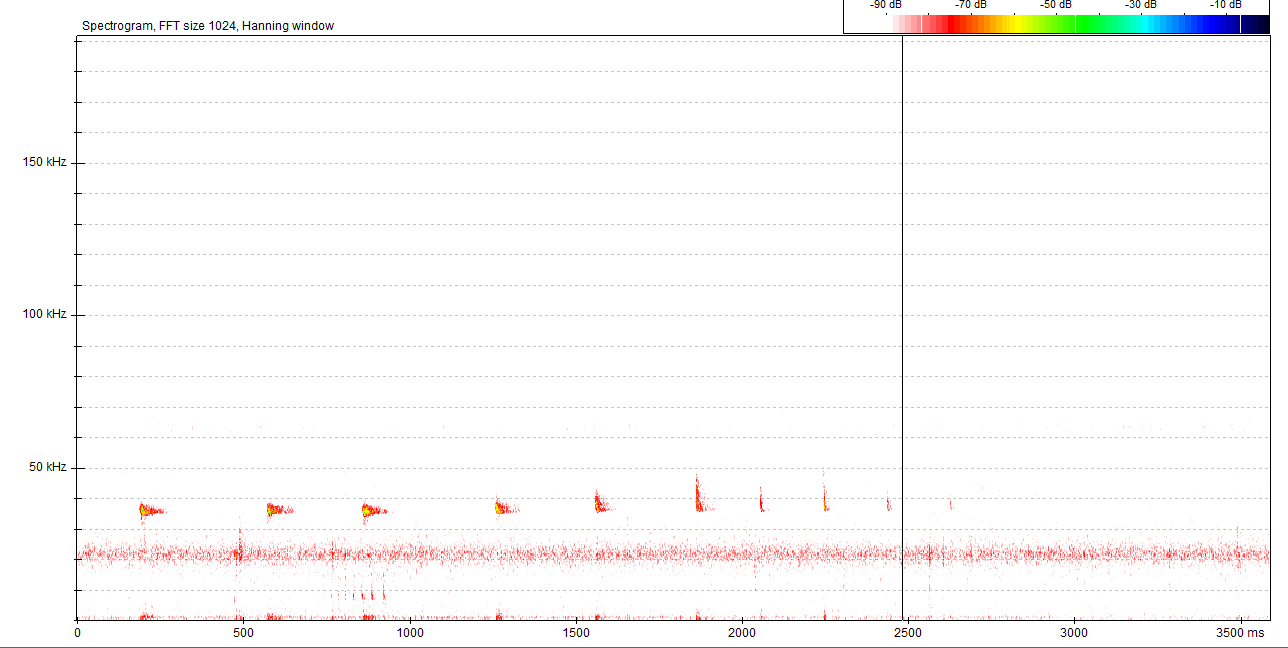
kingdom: Animalia
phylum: Chordata
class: Mammalia
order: Chiroptera
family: Vespertilionidae
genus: Pipistrellus
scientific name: Pipistrellus nathusii
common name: Nathusius's pipistrelle
